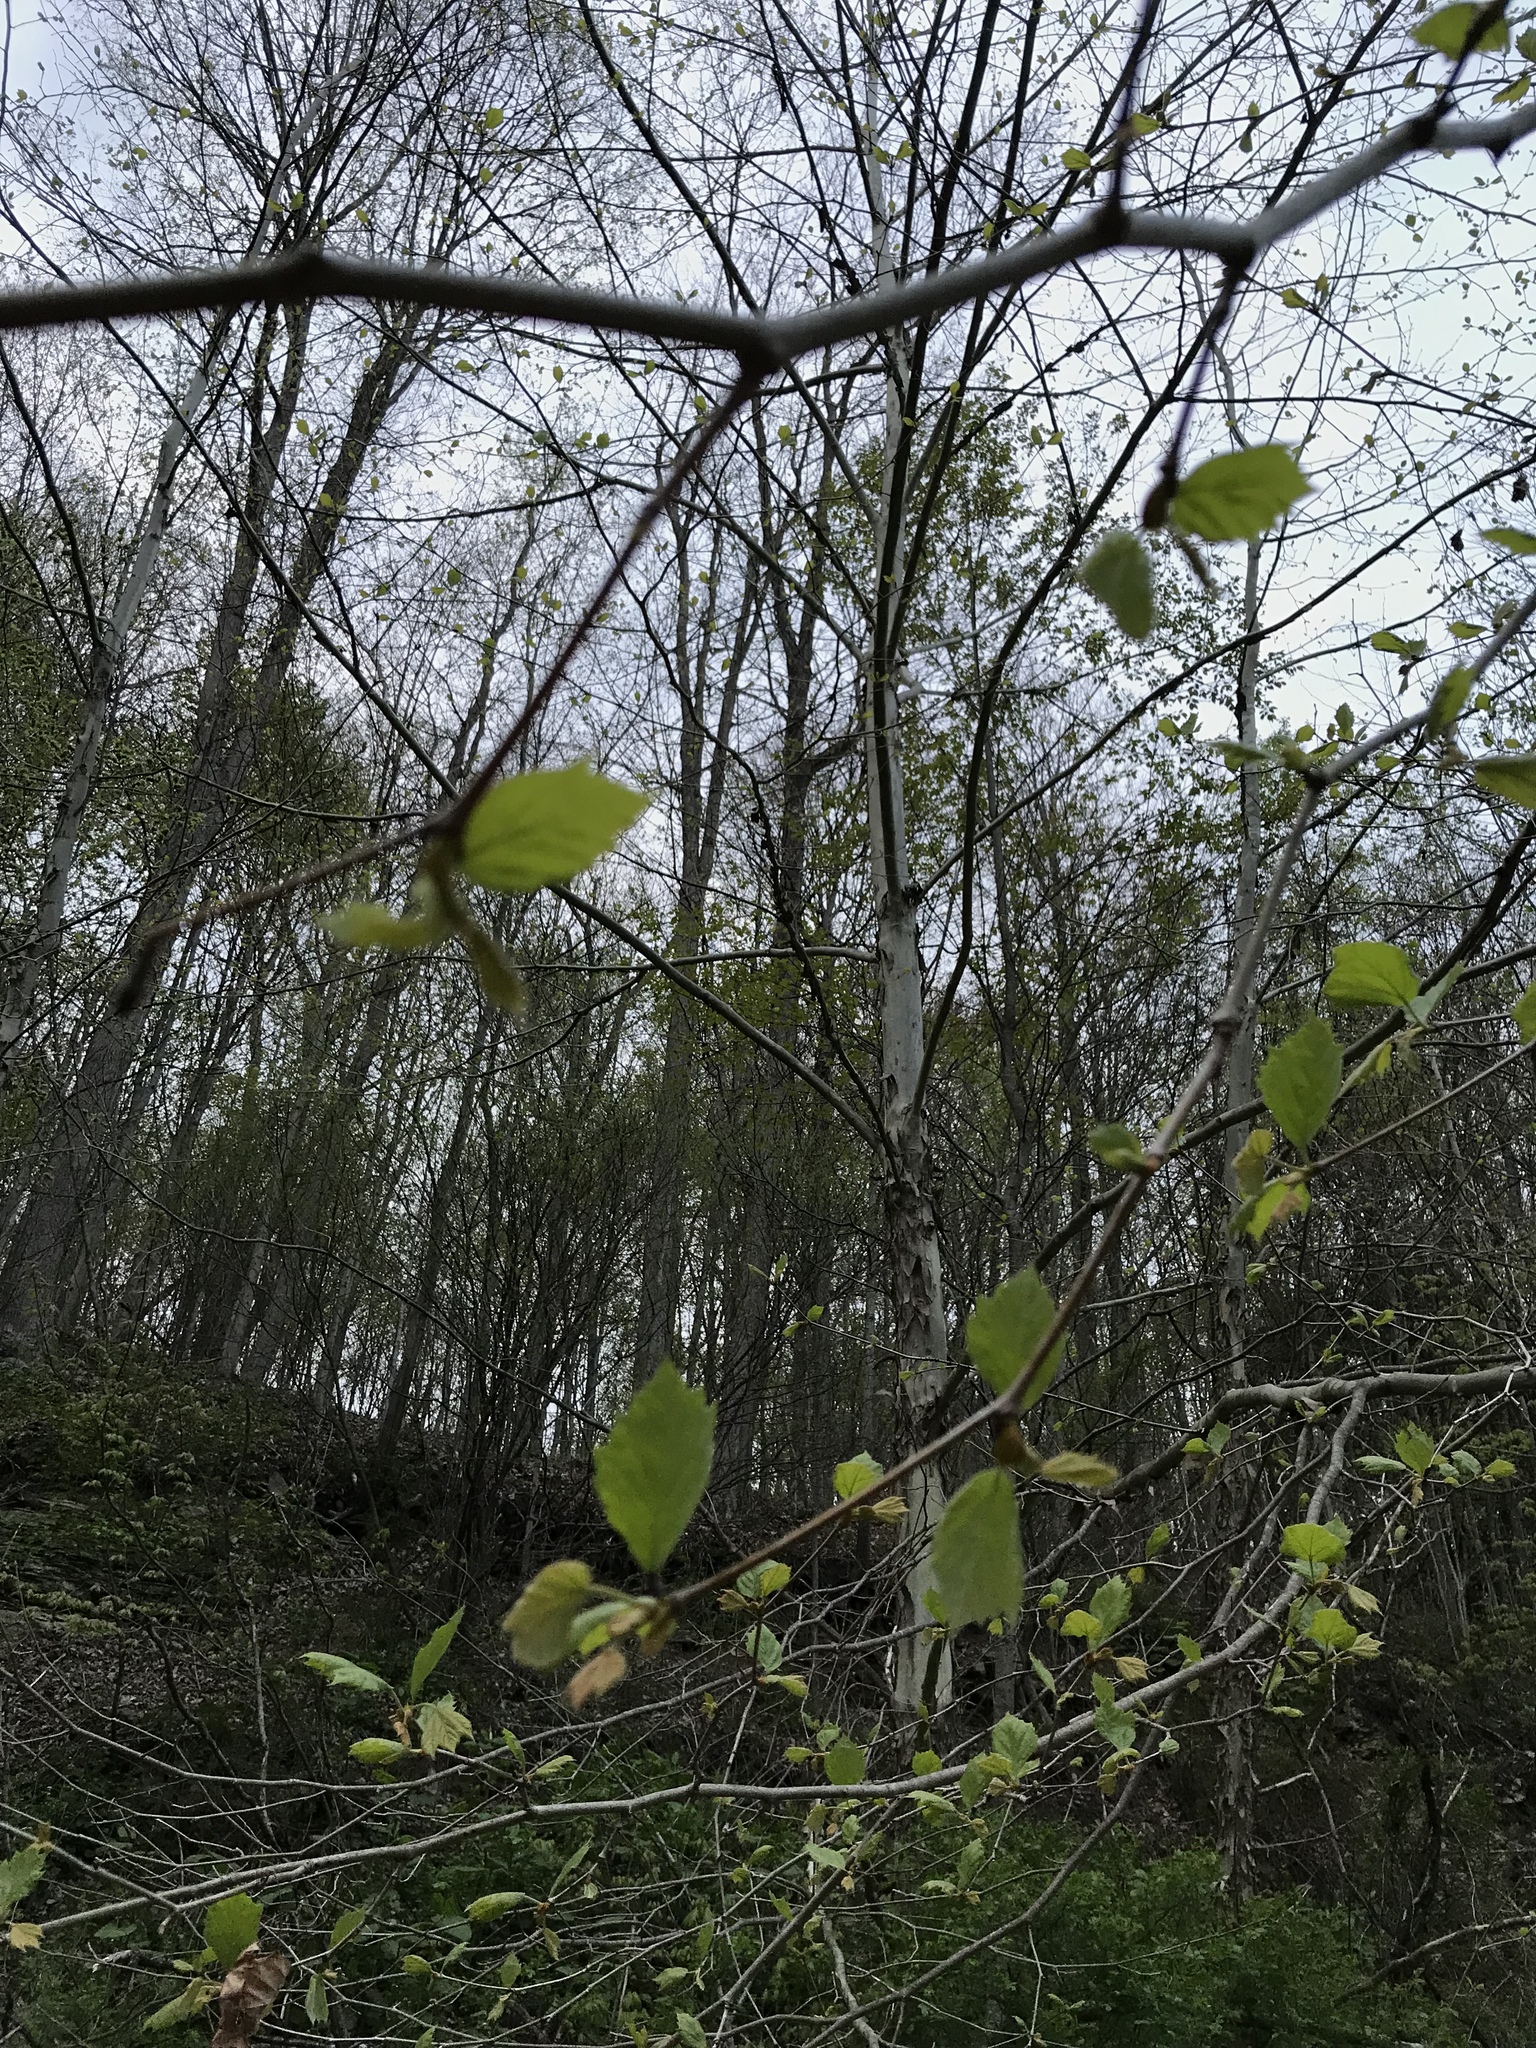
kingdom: Plantae
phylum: Tracheophyta
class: Magnoliopsida
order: Proteales
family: Platanaceae
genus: Platanus
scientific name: Platanus occidentalis
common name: American sycamore
